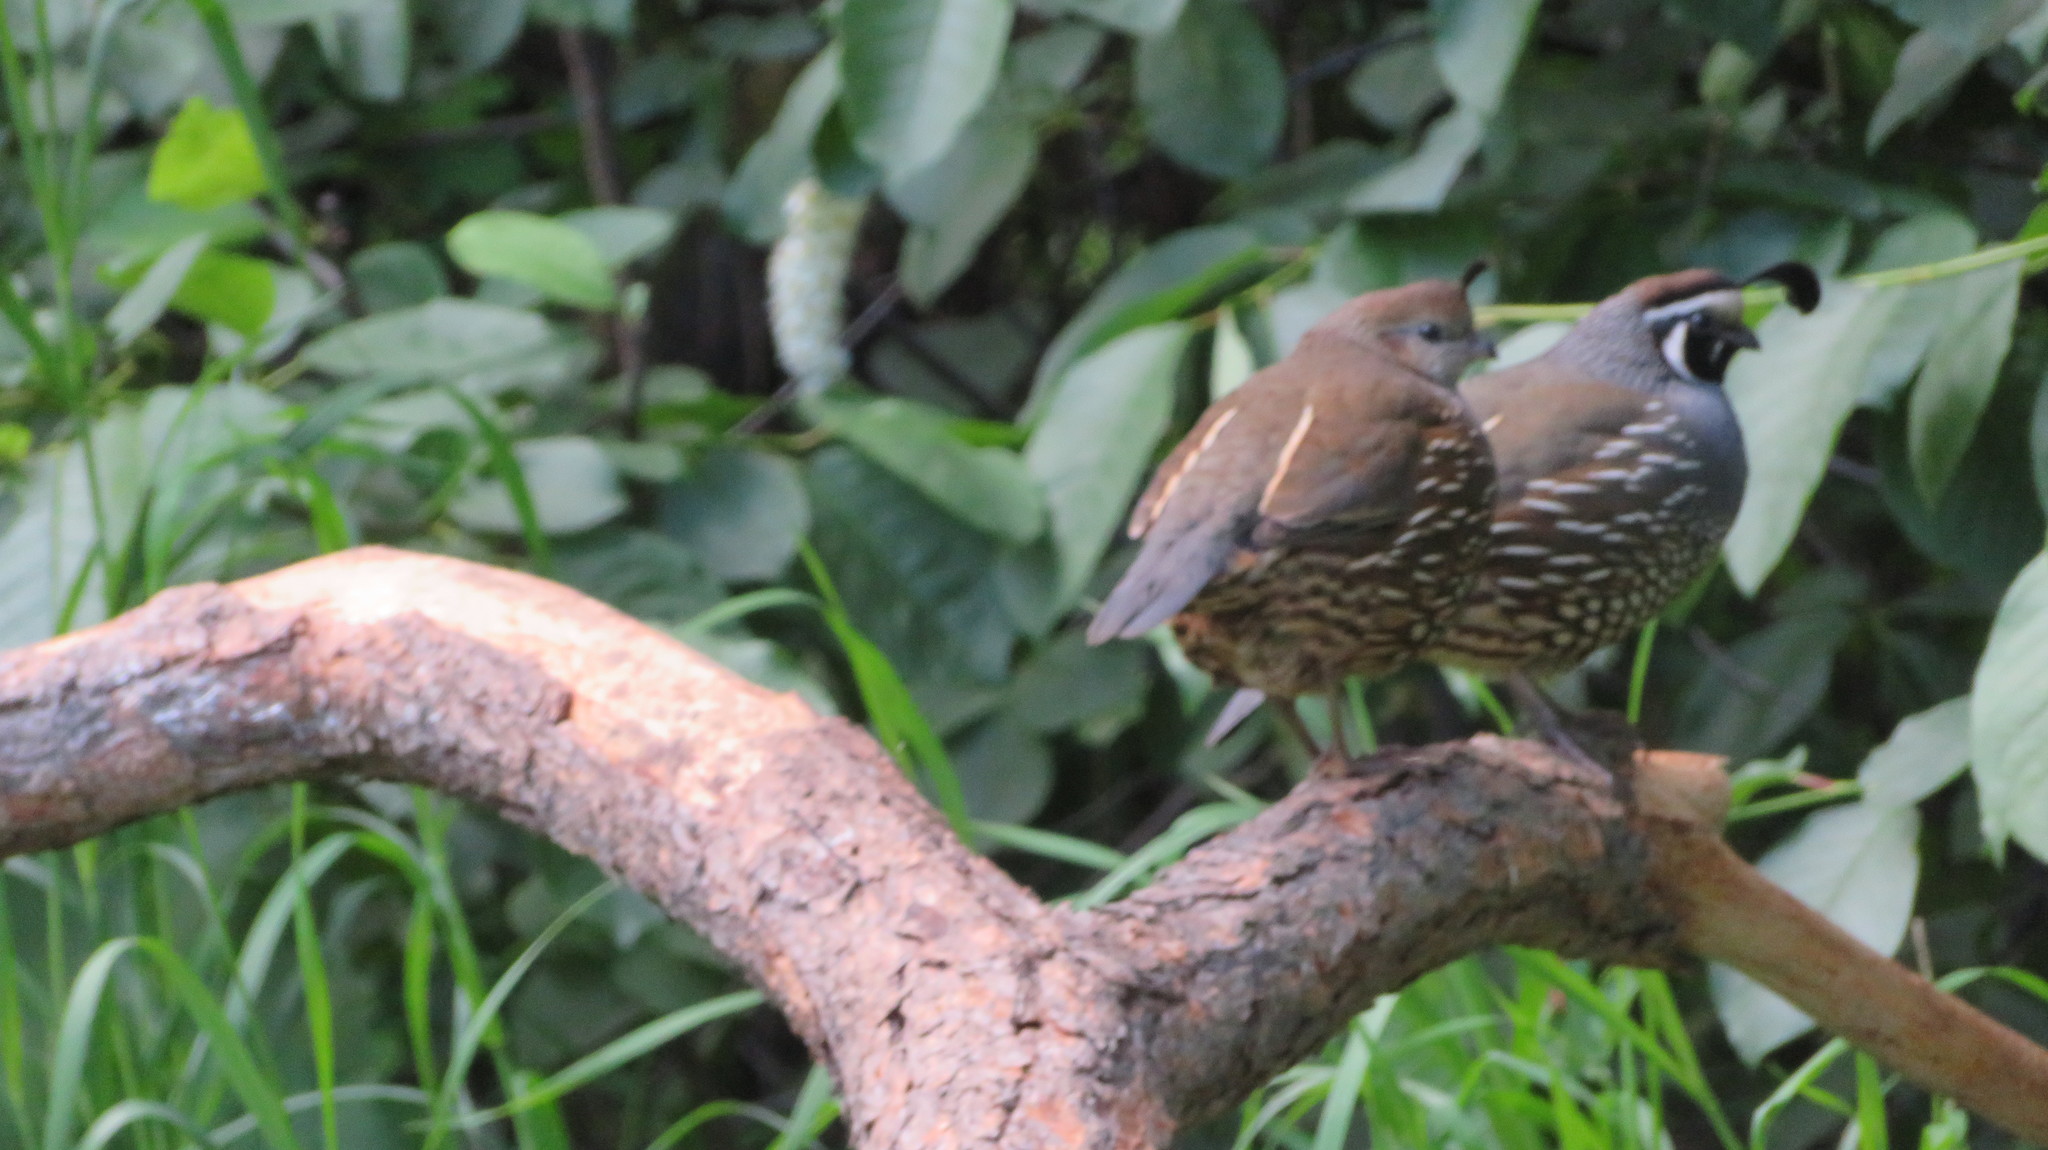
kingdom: Animalia
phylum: Chordata
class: Aves
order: Galliformes
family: Odontophoridae
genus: Callipepla
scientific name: Callipepla californica
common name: California quail
